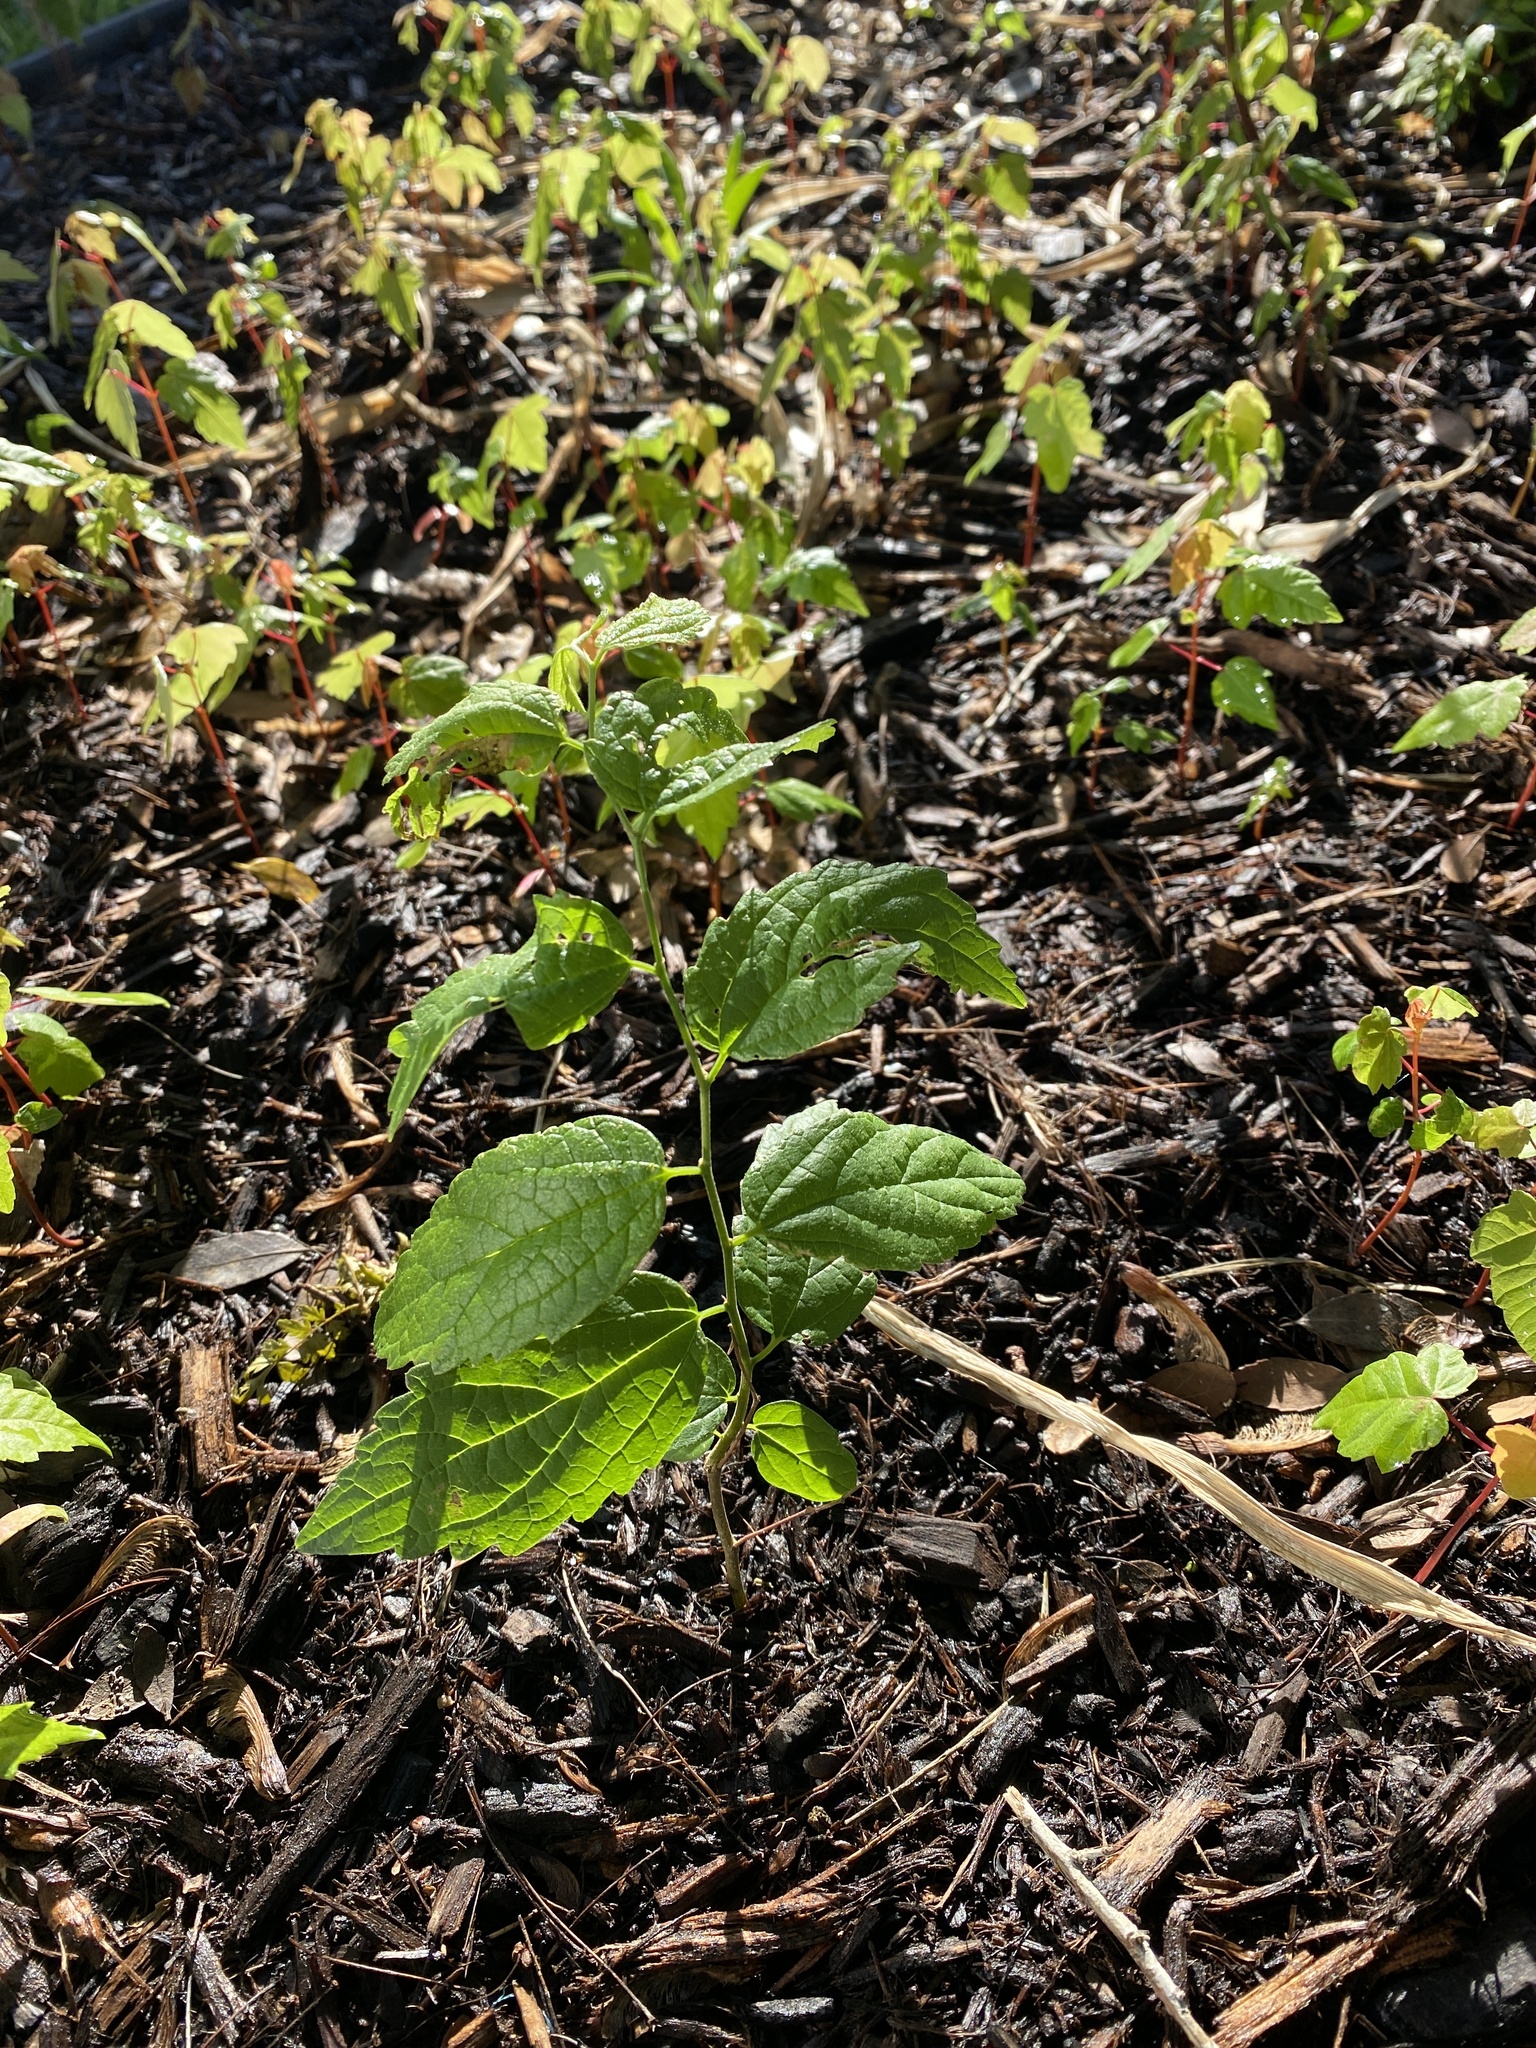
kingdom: Plantae
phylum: Tracheophyta
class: Magnoliopsida
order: Rosales
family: Cannabaceae
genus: Celtis
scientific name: Celtis laevigata
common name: Sugarberry
